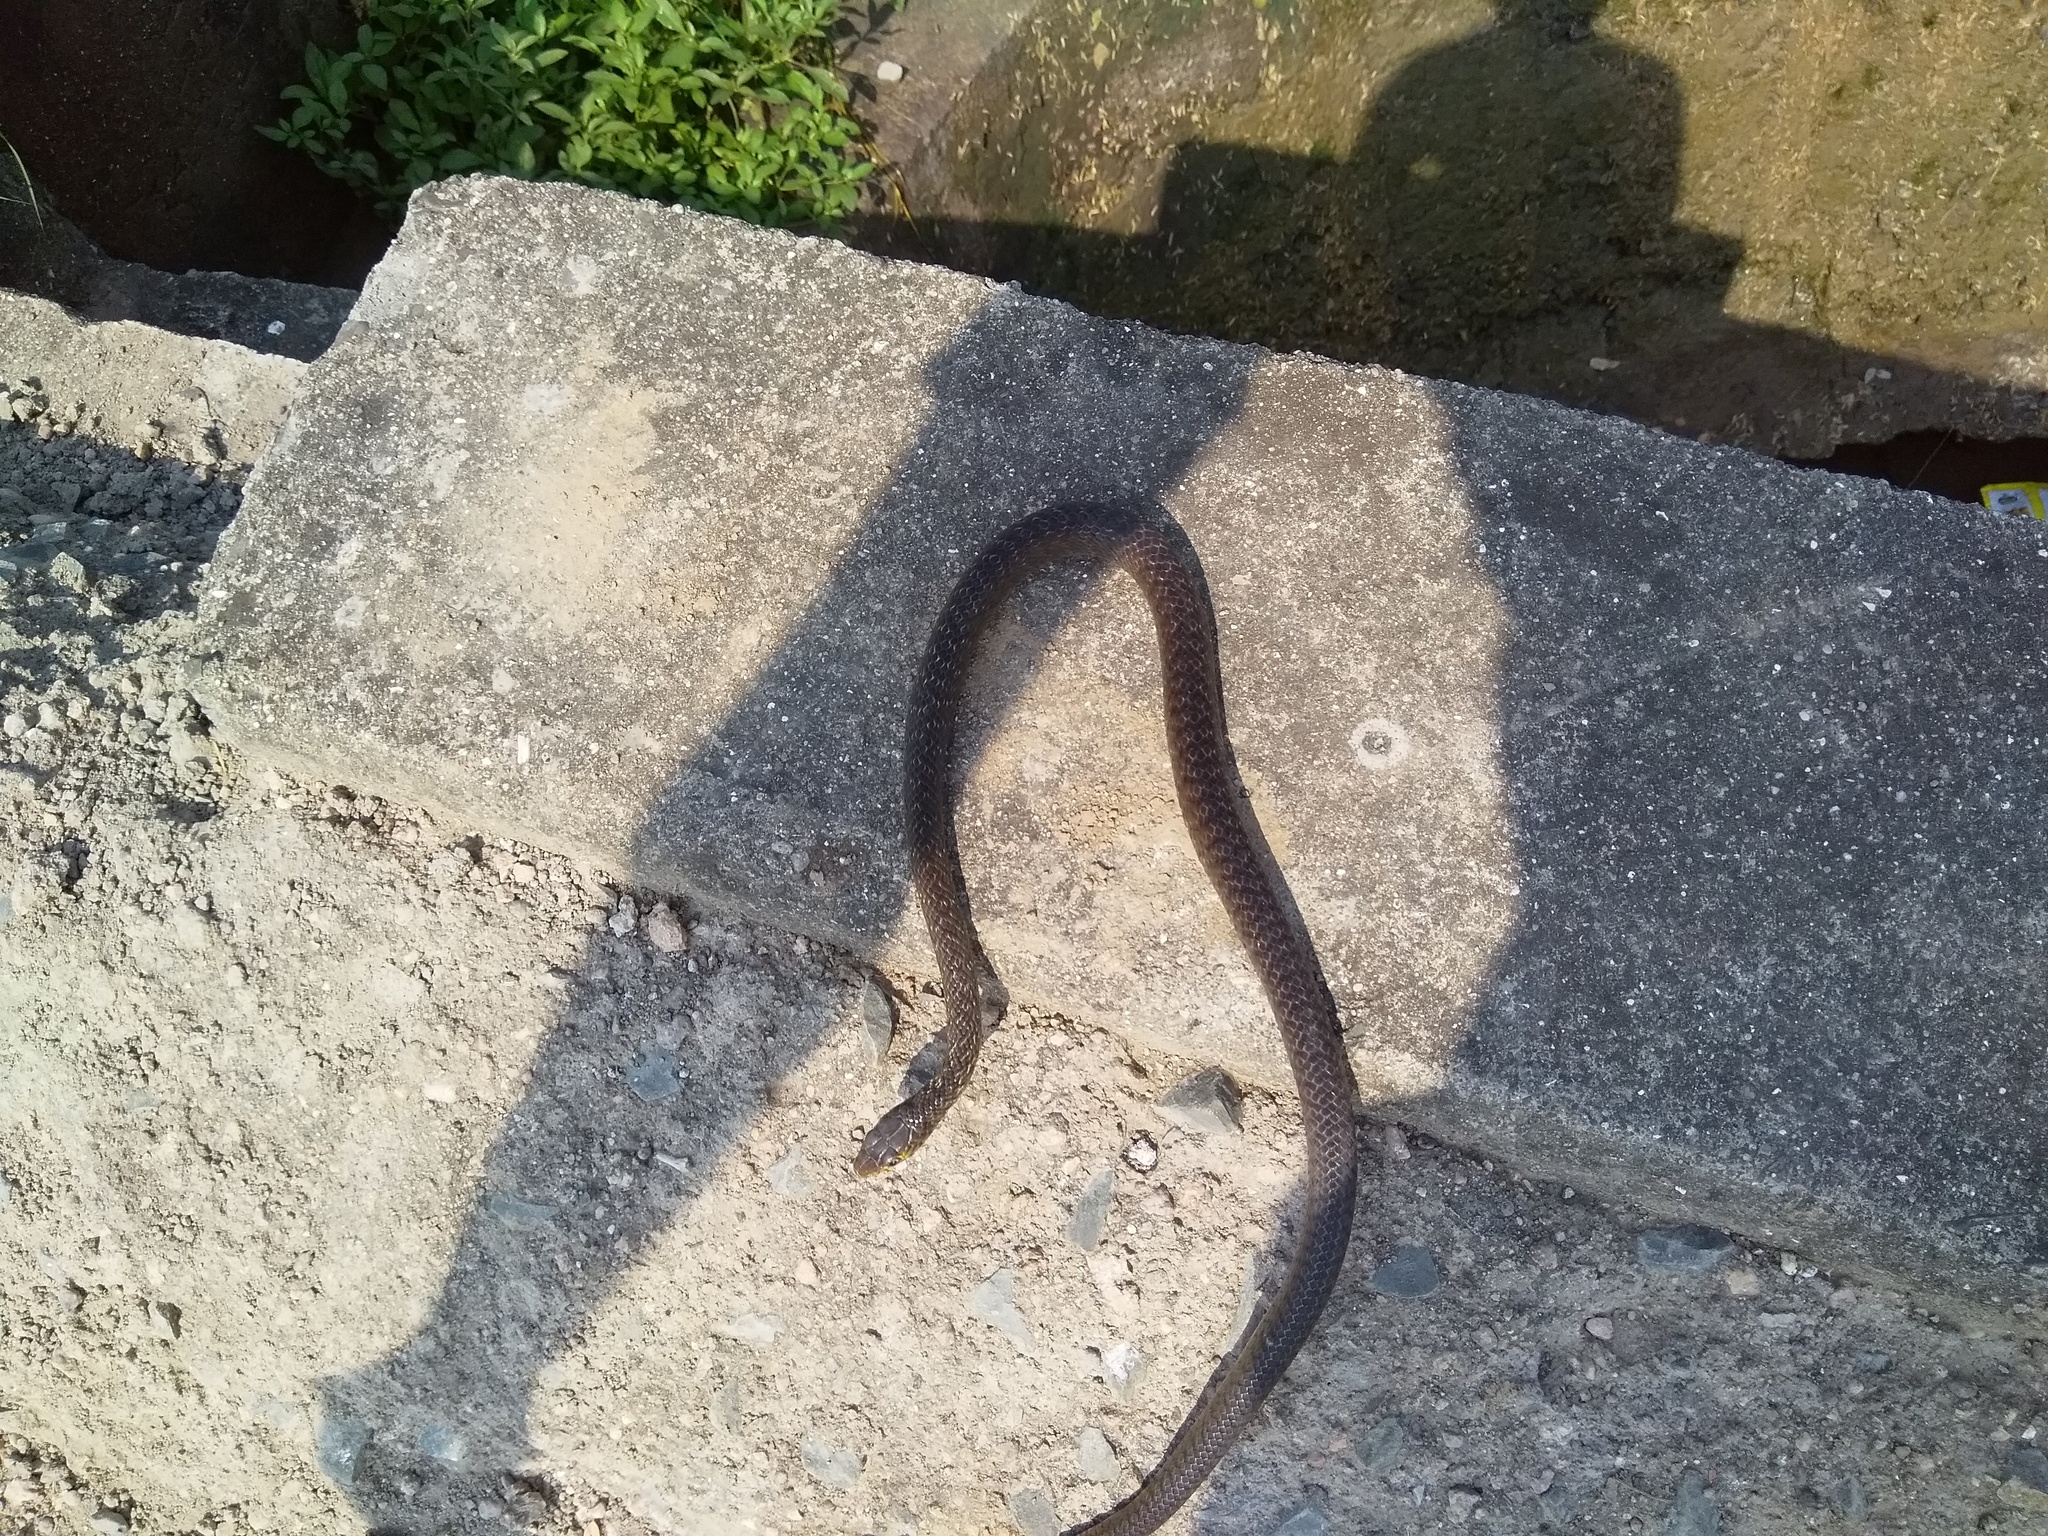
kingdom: Animalia
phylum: Chordata
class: Squamata
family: Colubridae
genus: Ptyas
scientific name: Ptyas mucosa
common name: Oriental ratsnake
